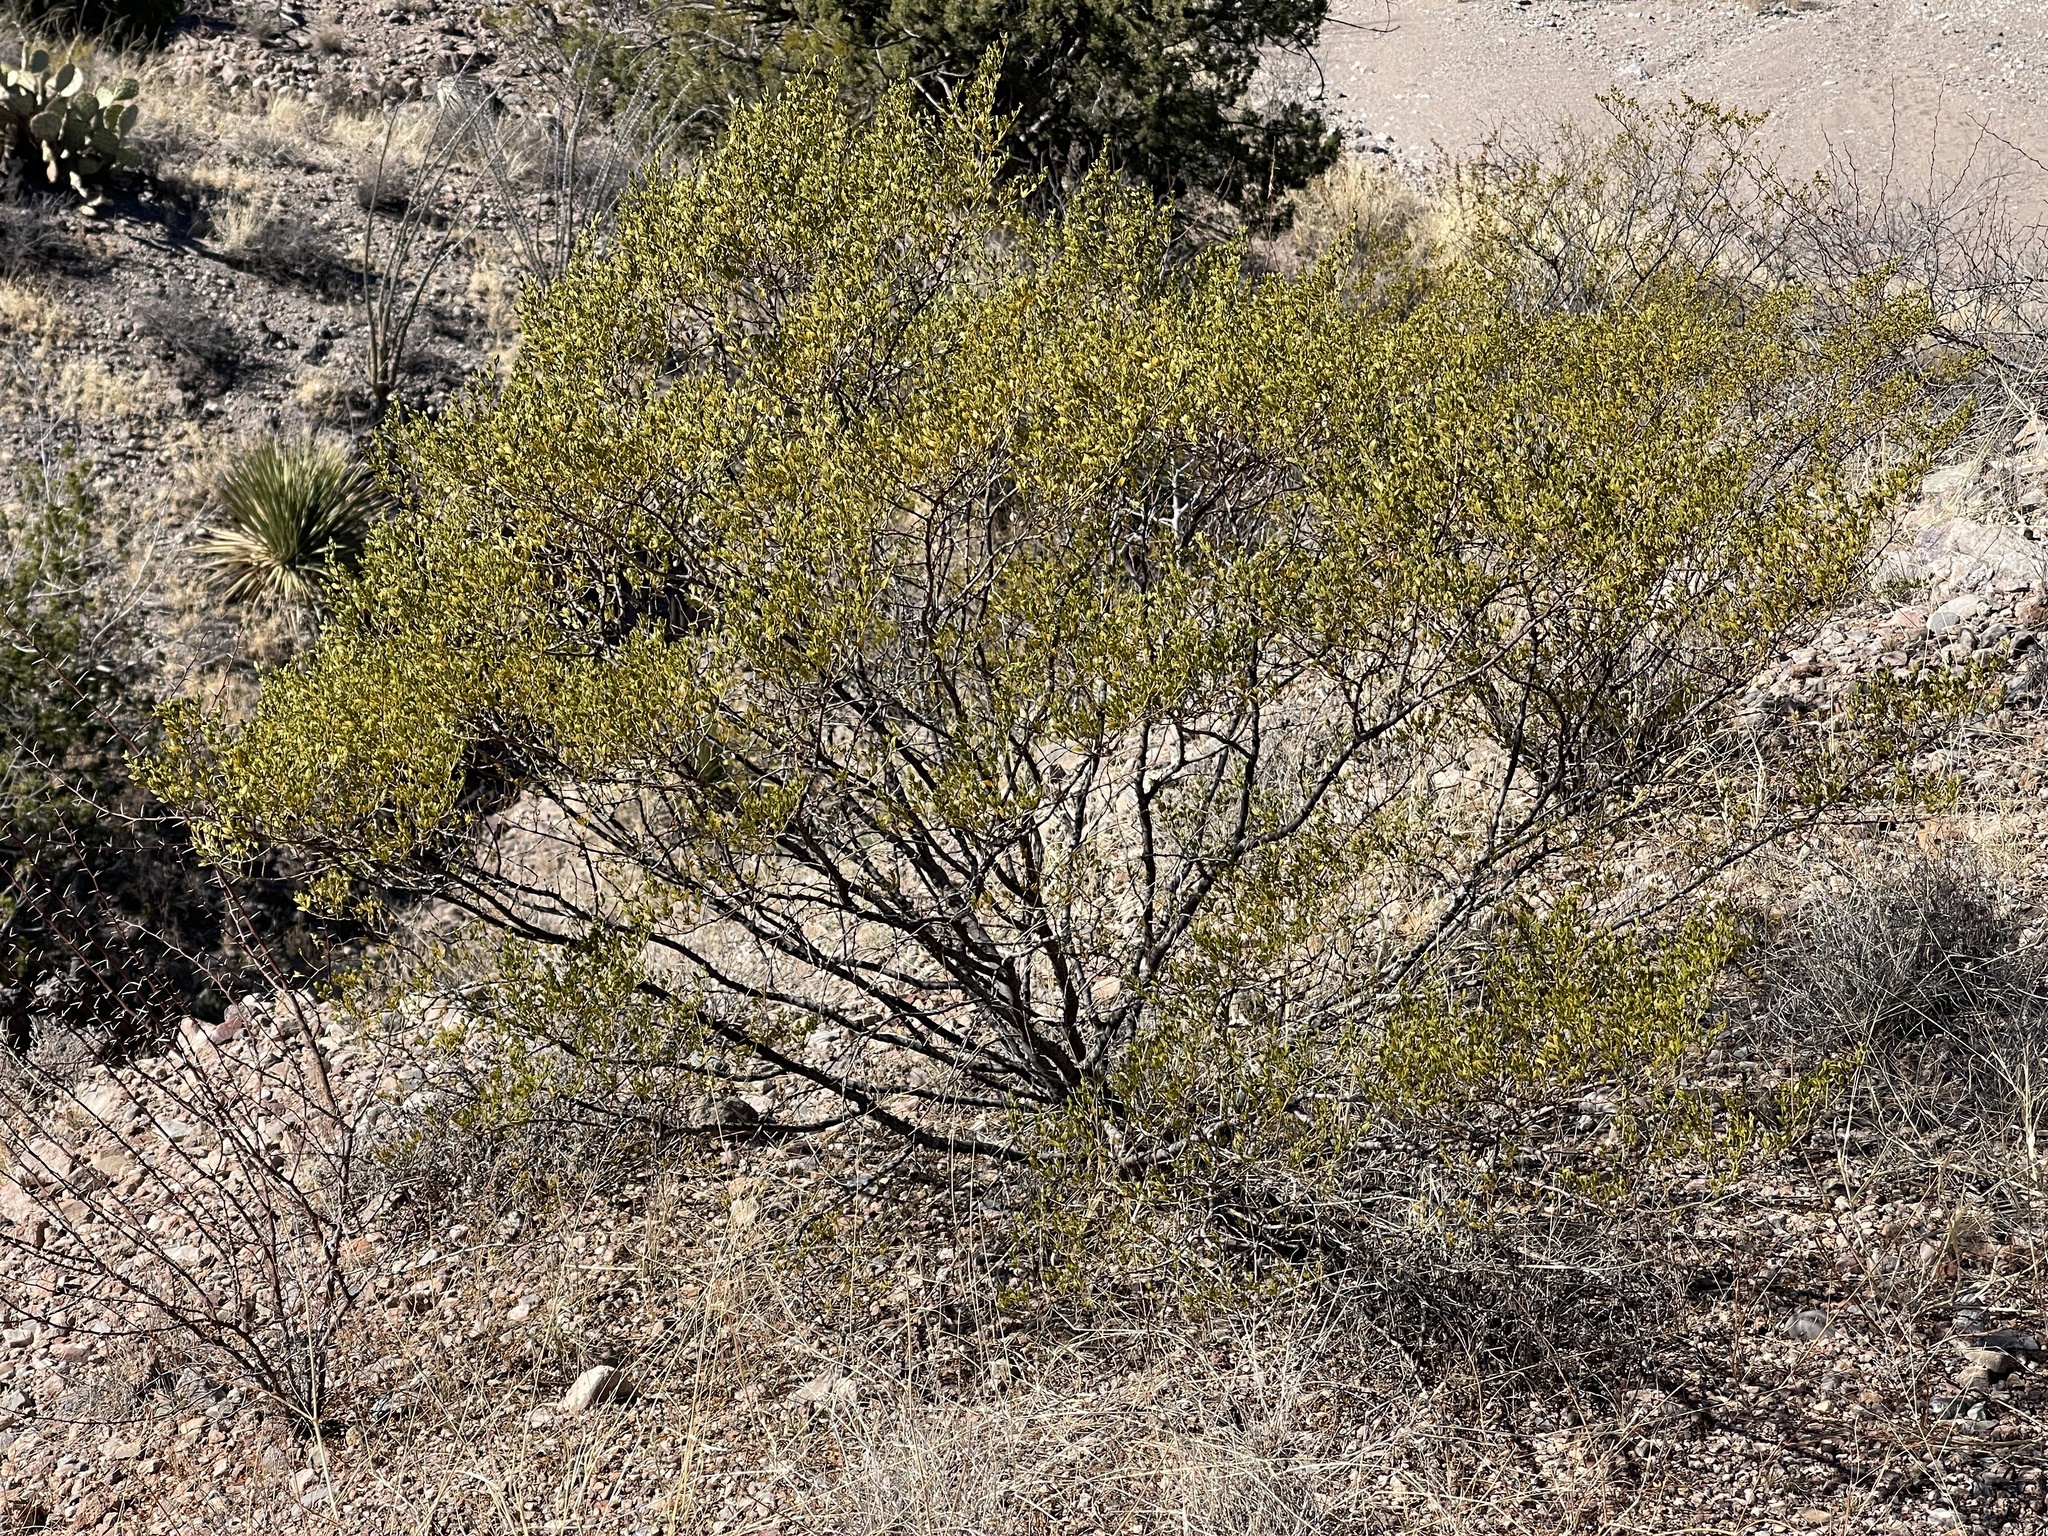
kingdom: Plantae
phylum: Tracheophyta
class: Magnoliopsida
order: Zygophyllales
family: Zygophyllaceae
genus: Larrea
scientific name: Larrea tridentata
